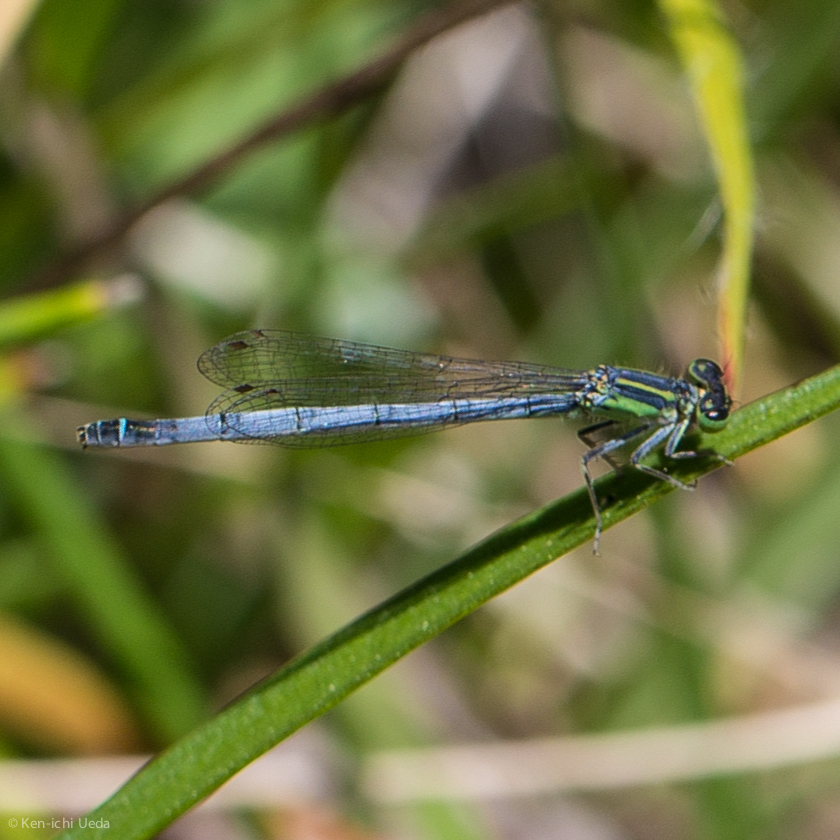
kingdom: Animalia
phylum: Arthropoda
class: Insecta
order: Odonata
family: Coenagrionidae
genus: Ischnura
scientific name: Ischnura perparva
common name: Western forktail
